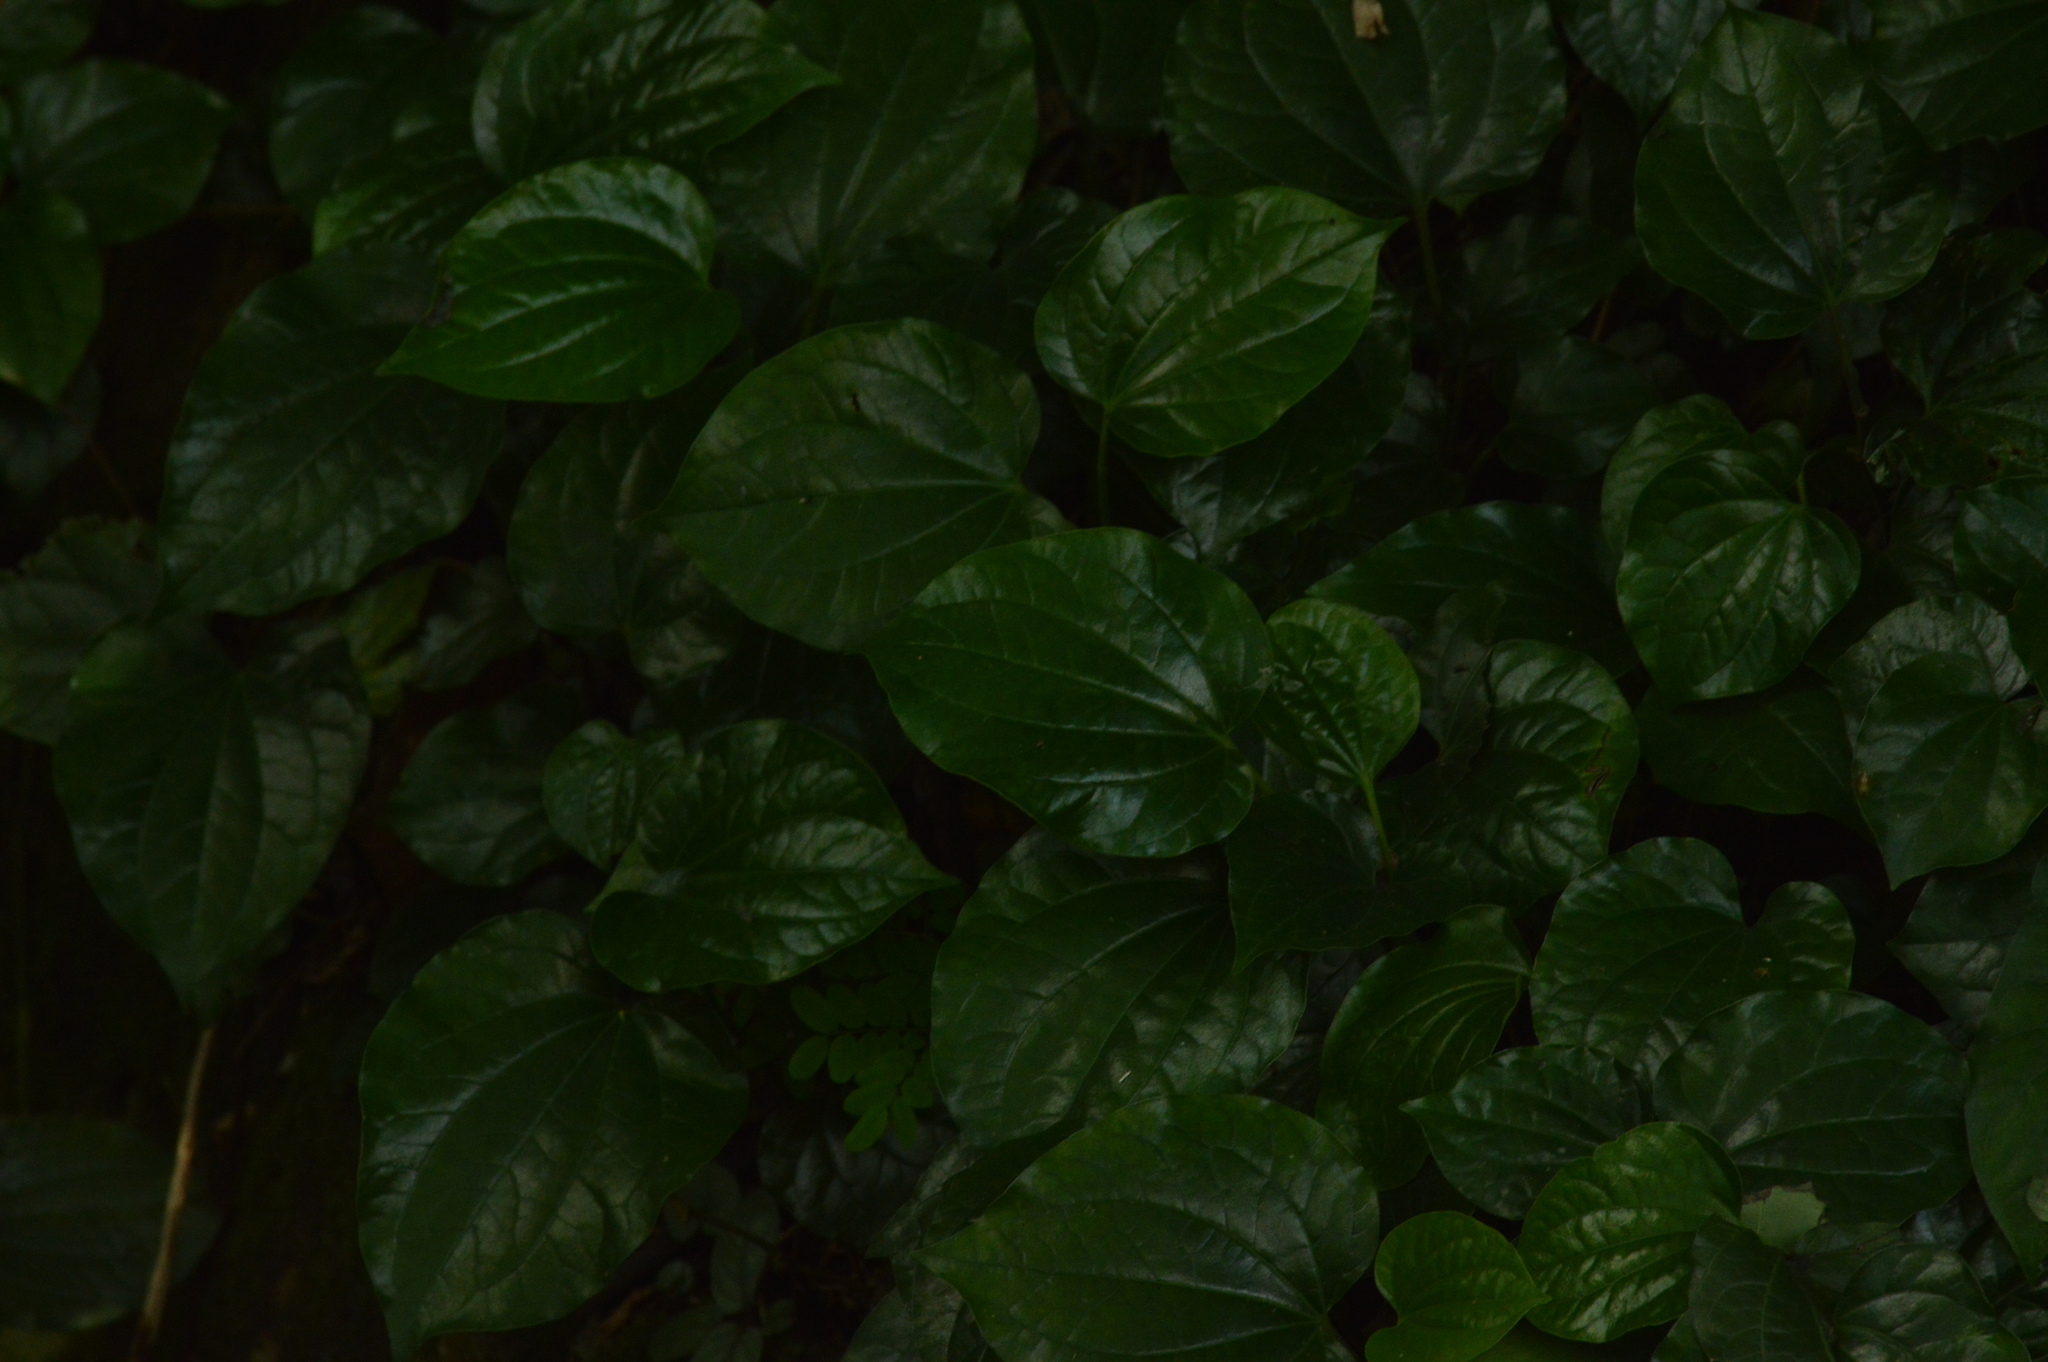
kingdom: Plantae
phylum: Tracheophyta
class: Magnoliopsida
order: Piperales
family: Piperaceae
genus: Piper
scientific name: Piper sarmentosum
